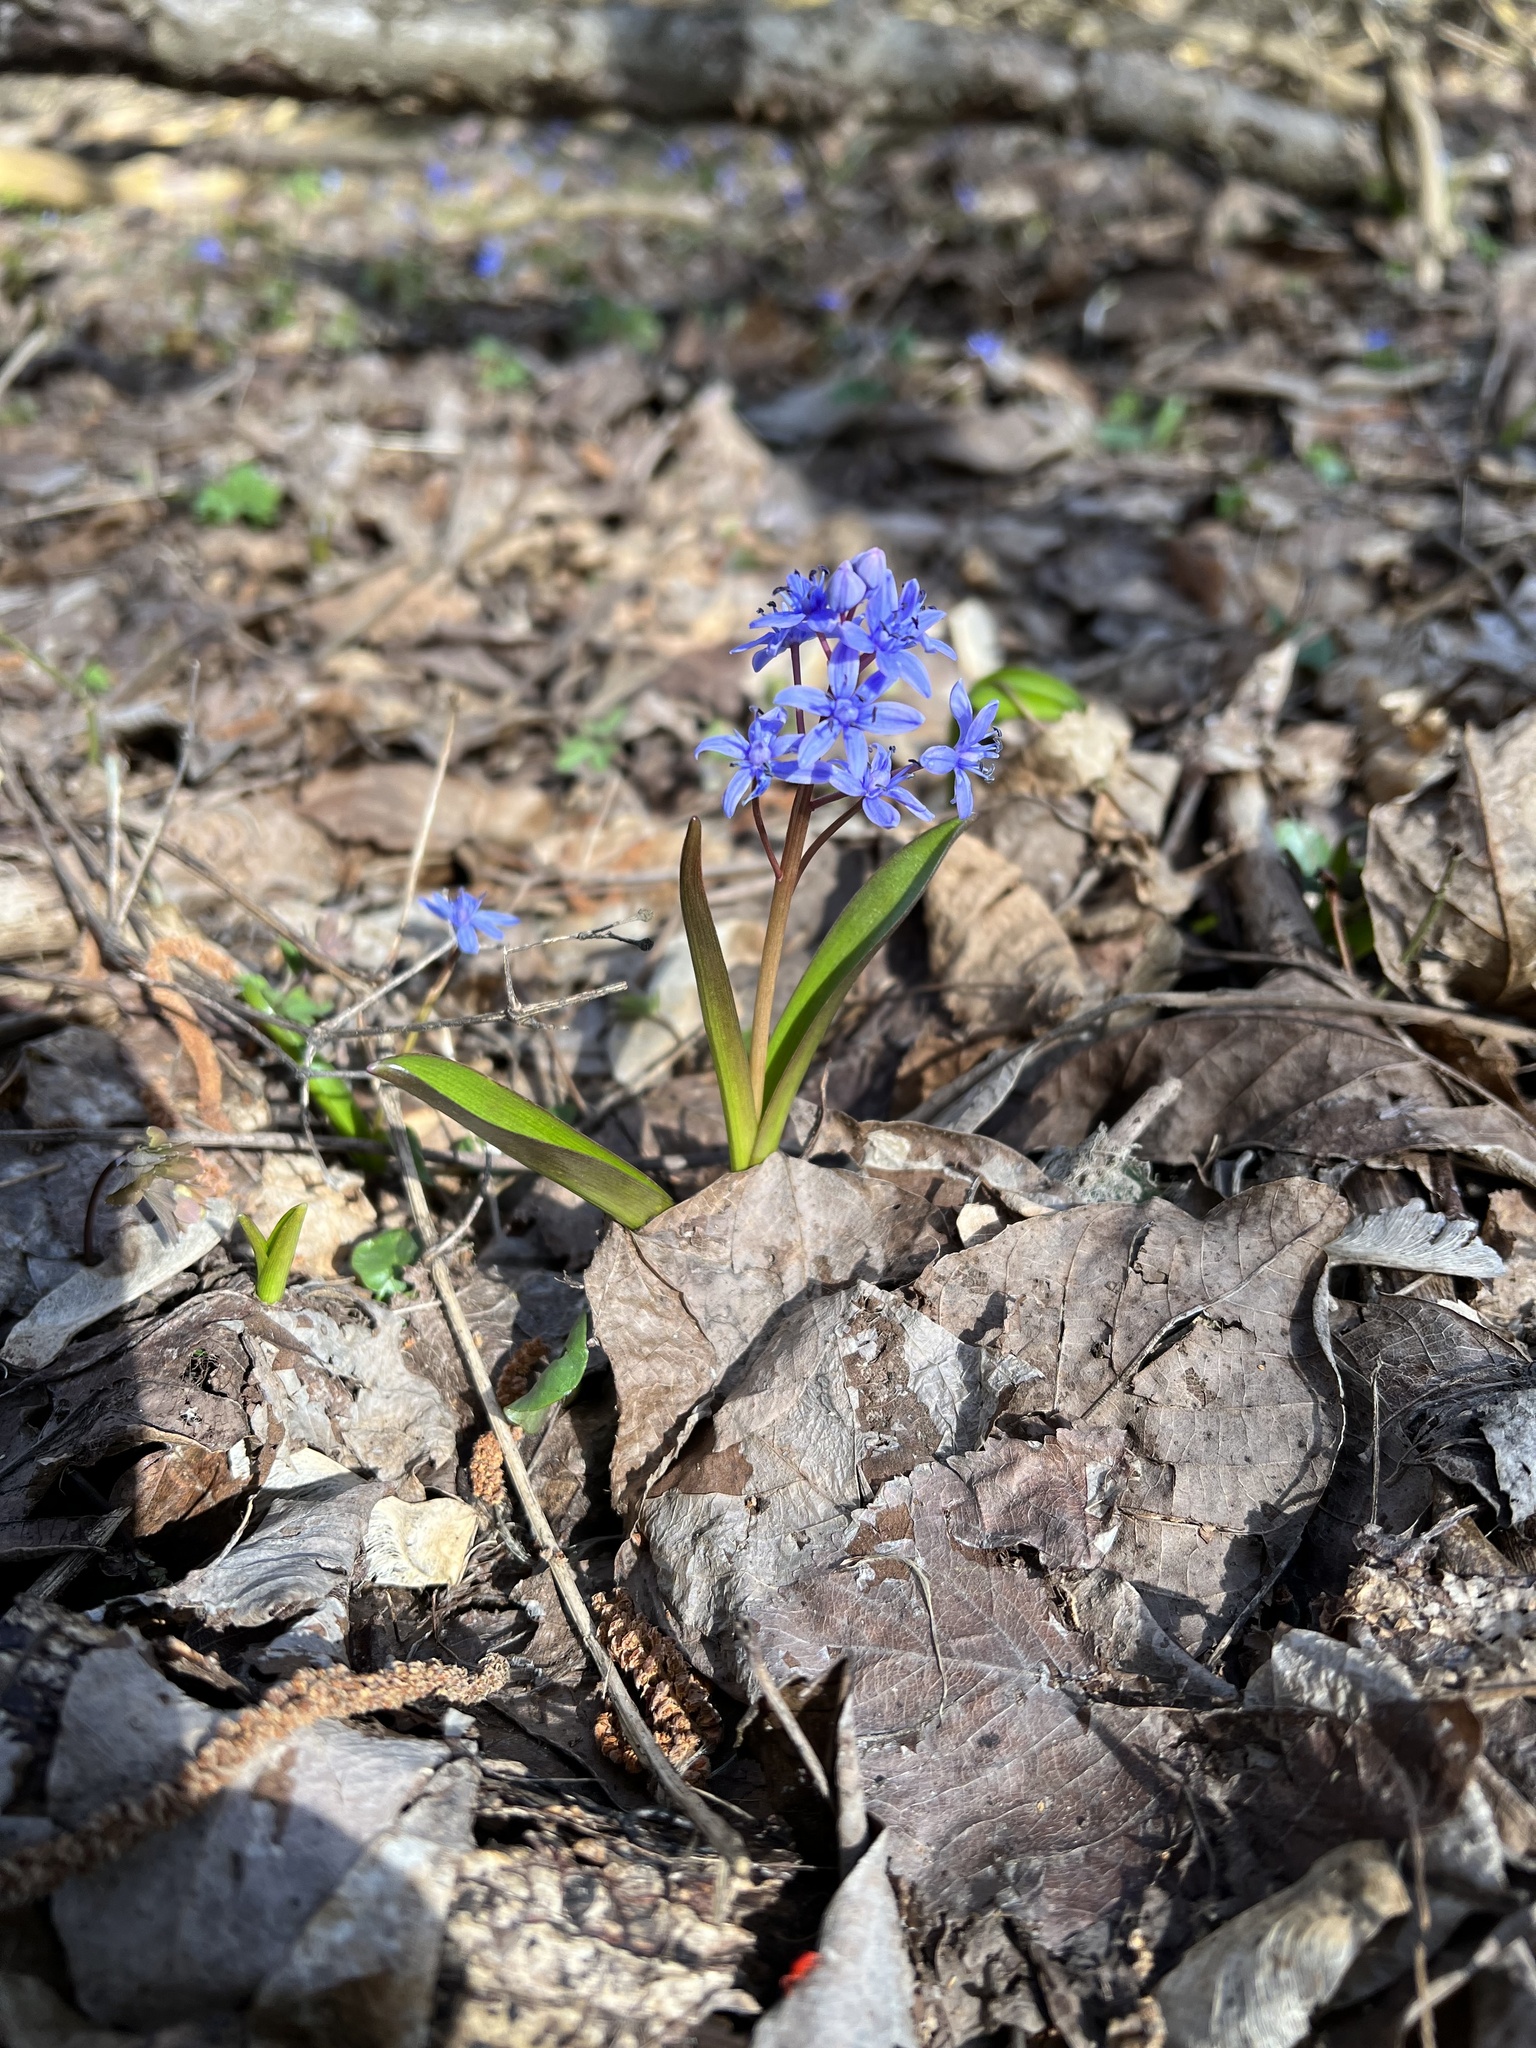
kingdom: Plantae
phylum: Tracheophyta
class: Liliopsida
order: Asparagales
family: Asparagaceae
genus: Scilla
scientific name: Scilla bifolia
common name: Alpine squill
